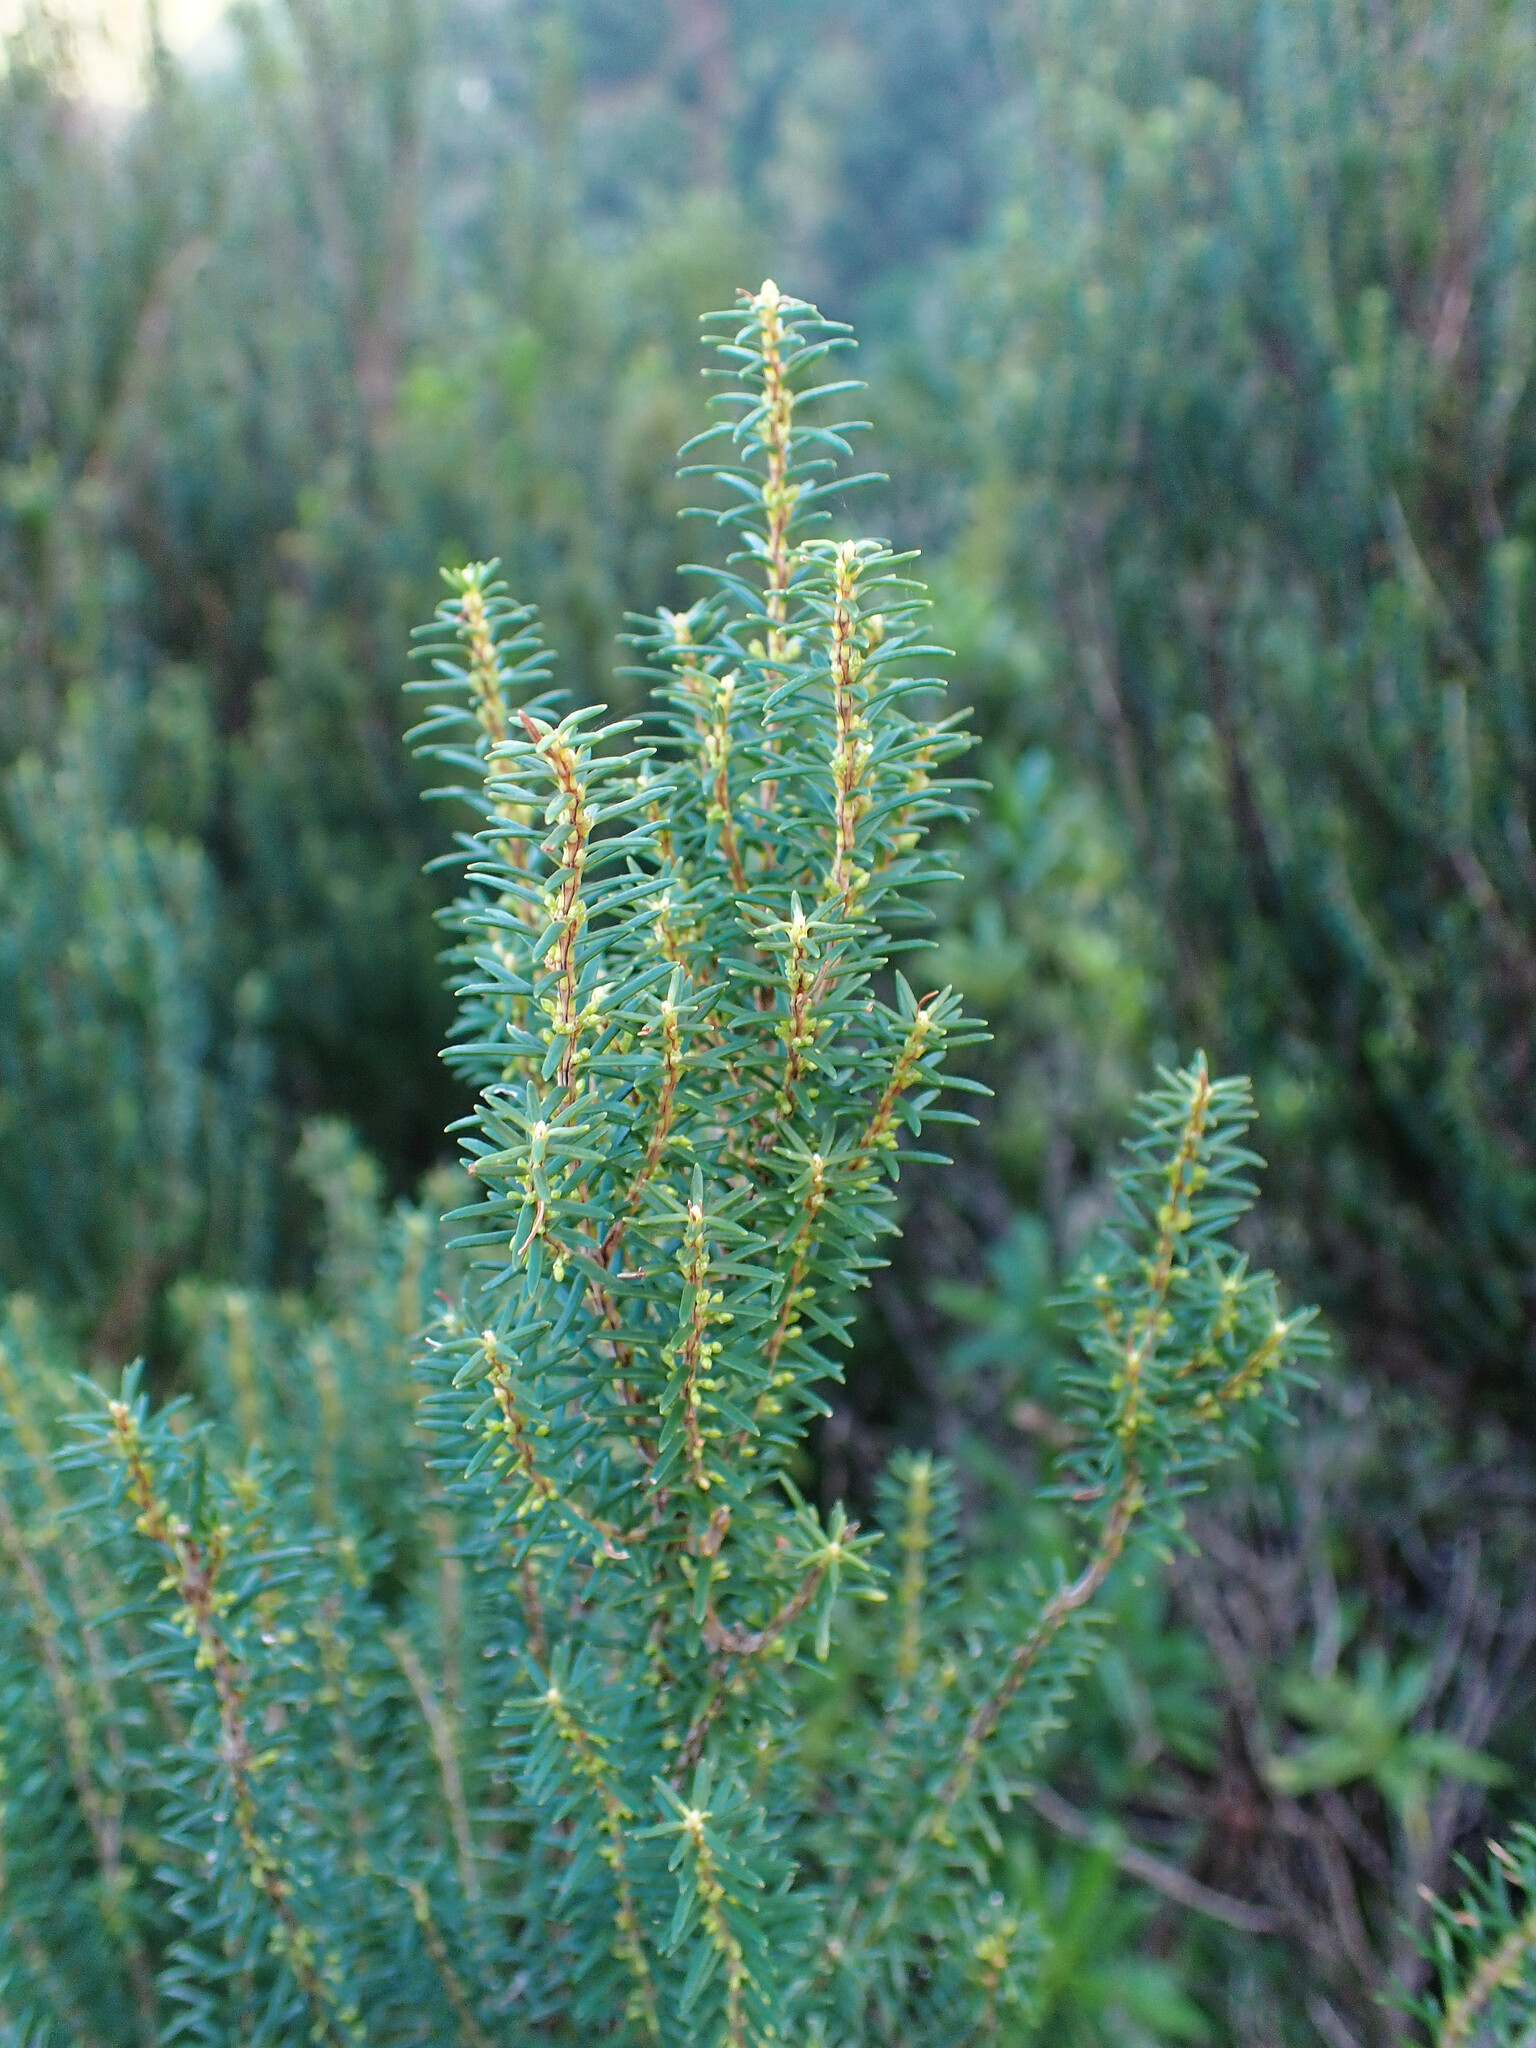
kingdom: Plantae
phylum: Tracheophyta
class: Magnoliopsida
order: Ericales
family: Ericaceae
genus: Erica
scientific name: Erica platycodon
